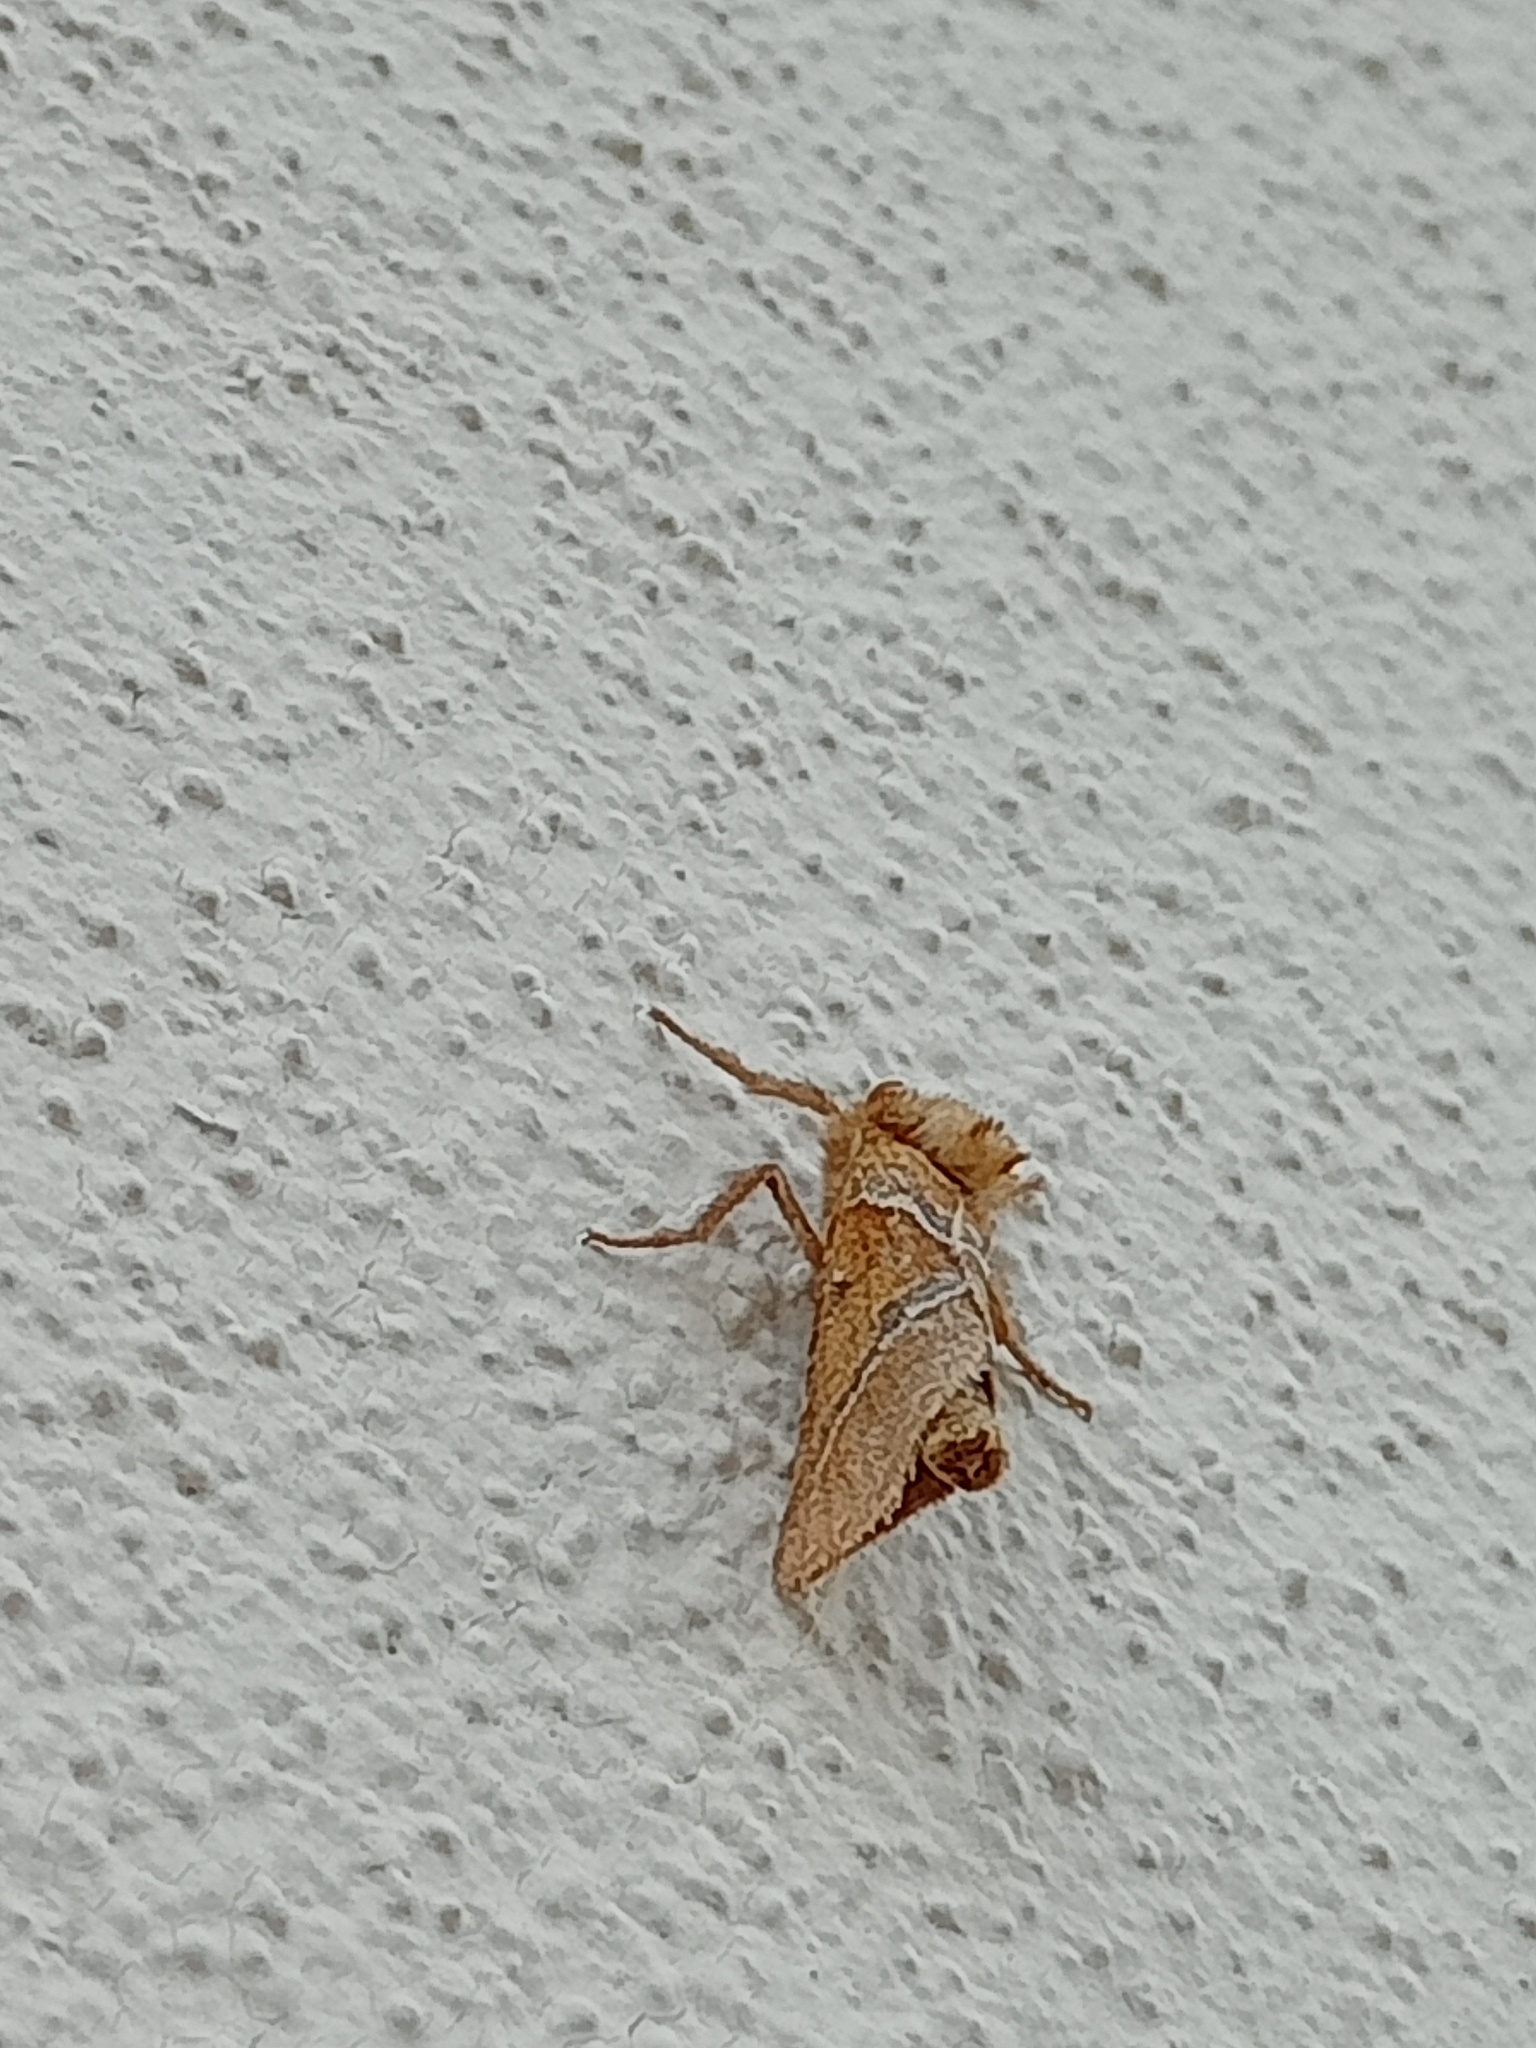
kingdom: Animalia
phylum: Arthropoda
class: Insecta
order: Lepidoptera
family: Hepialidae
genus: Triodia
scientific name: Triodia sylvina
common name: Orange swift
